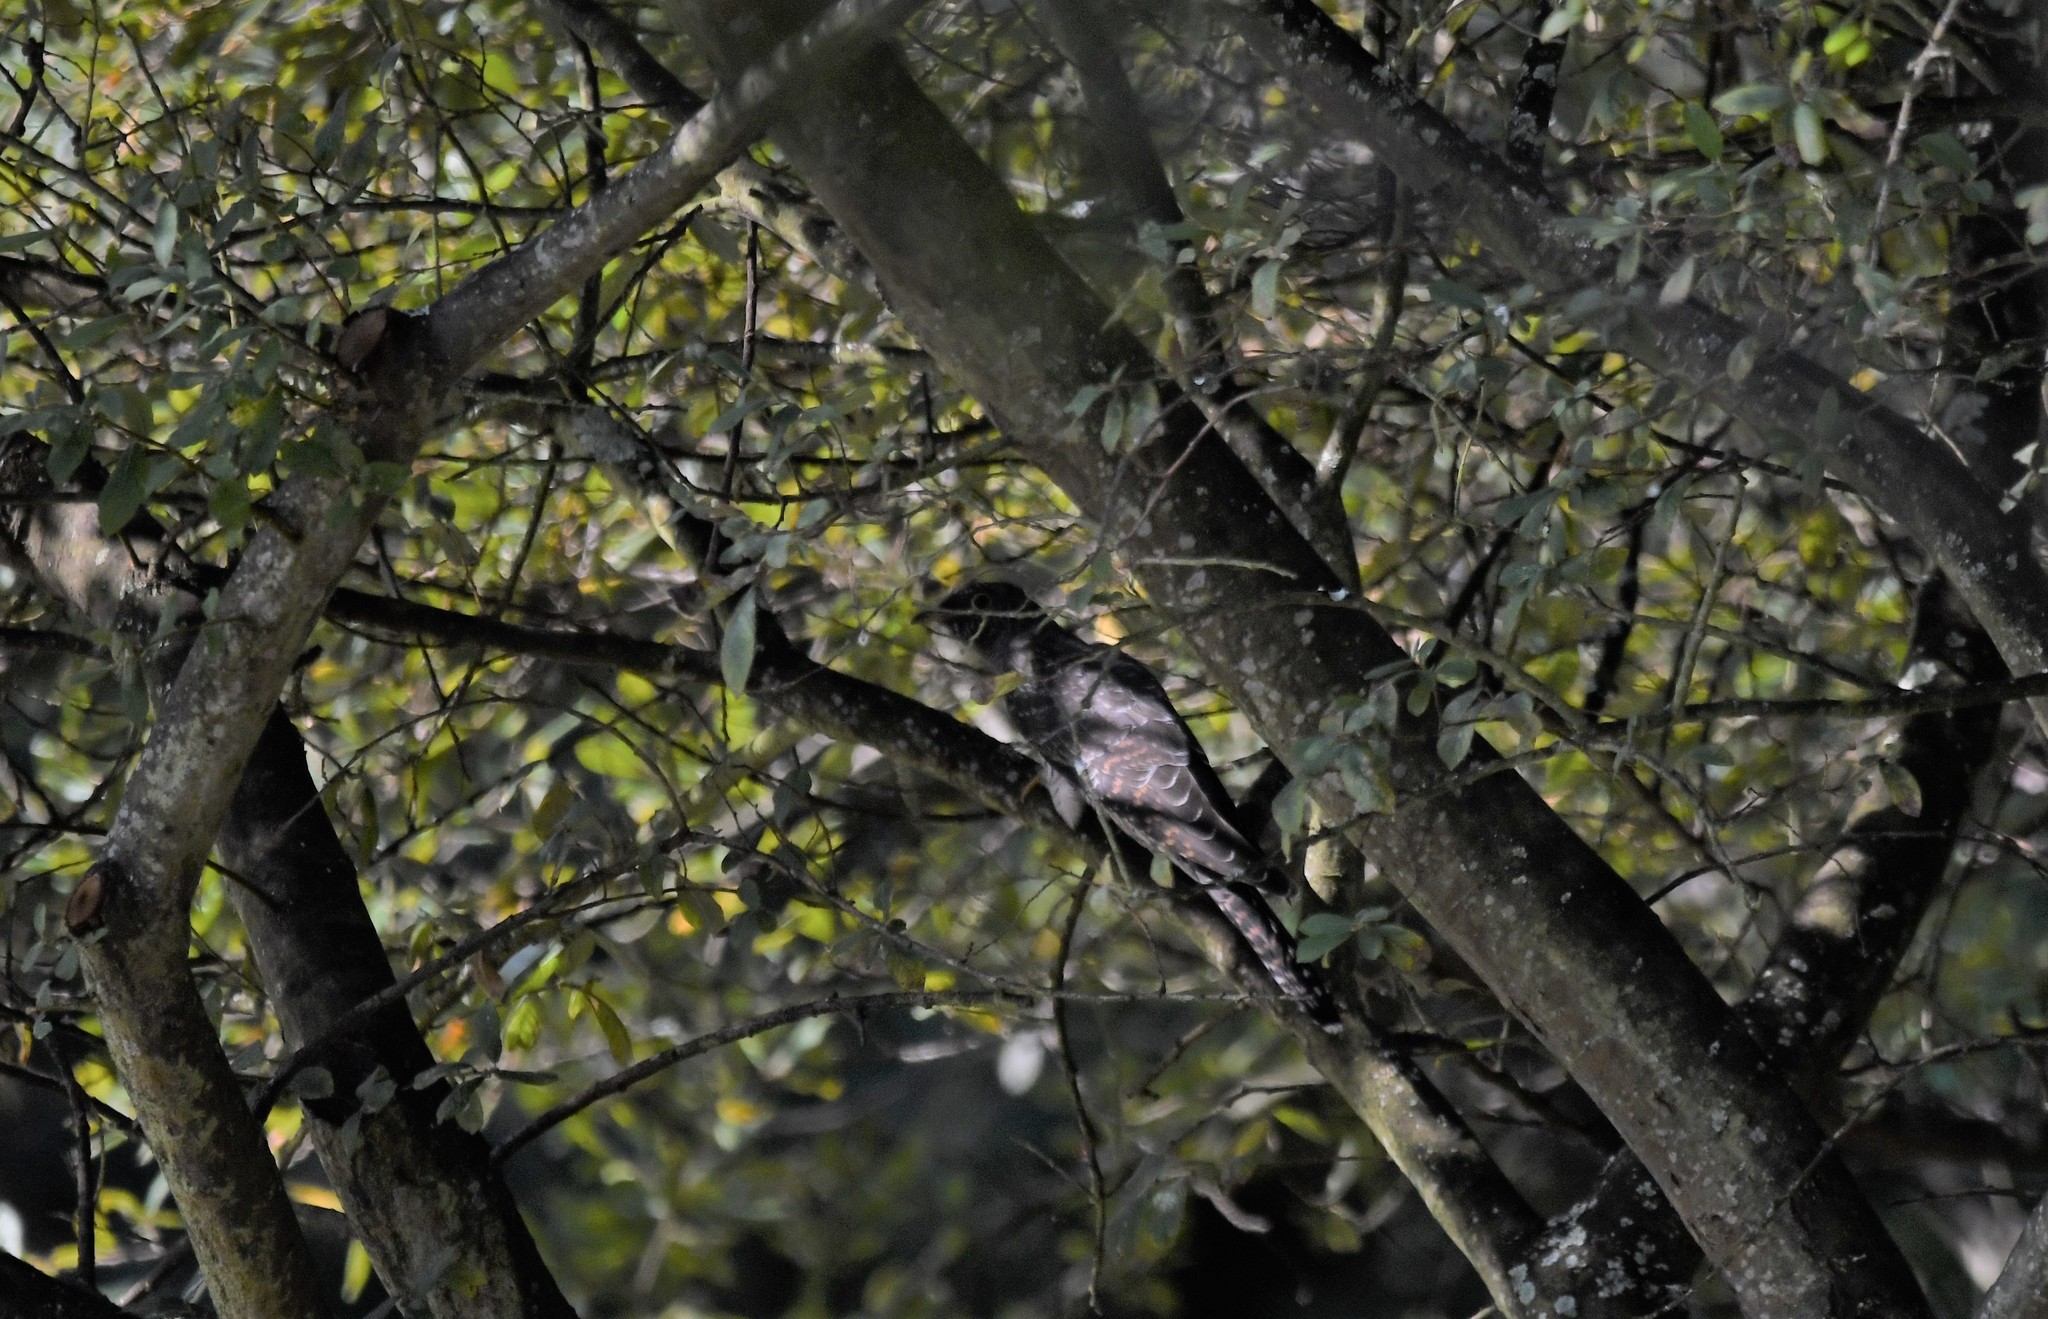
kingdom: Animalia
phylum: Chordata
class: Aves
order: Cuculiformes
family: Cuculidae
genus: Cuculus
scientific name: Cuculus canorus
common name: Common cuckoo
